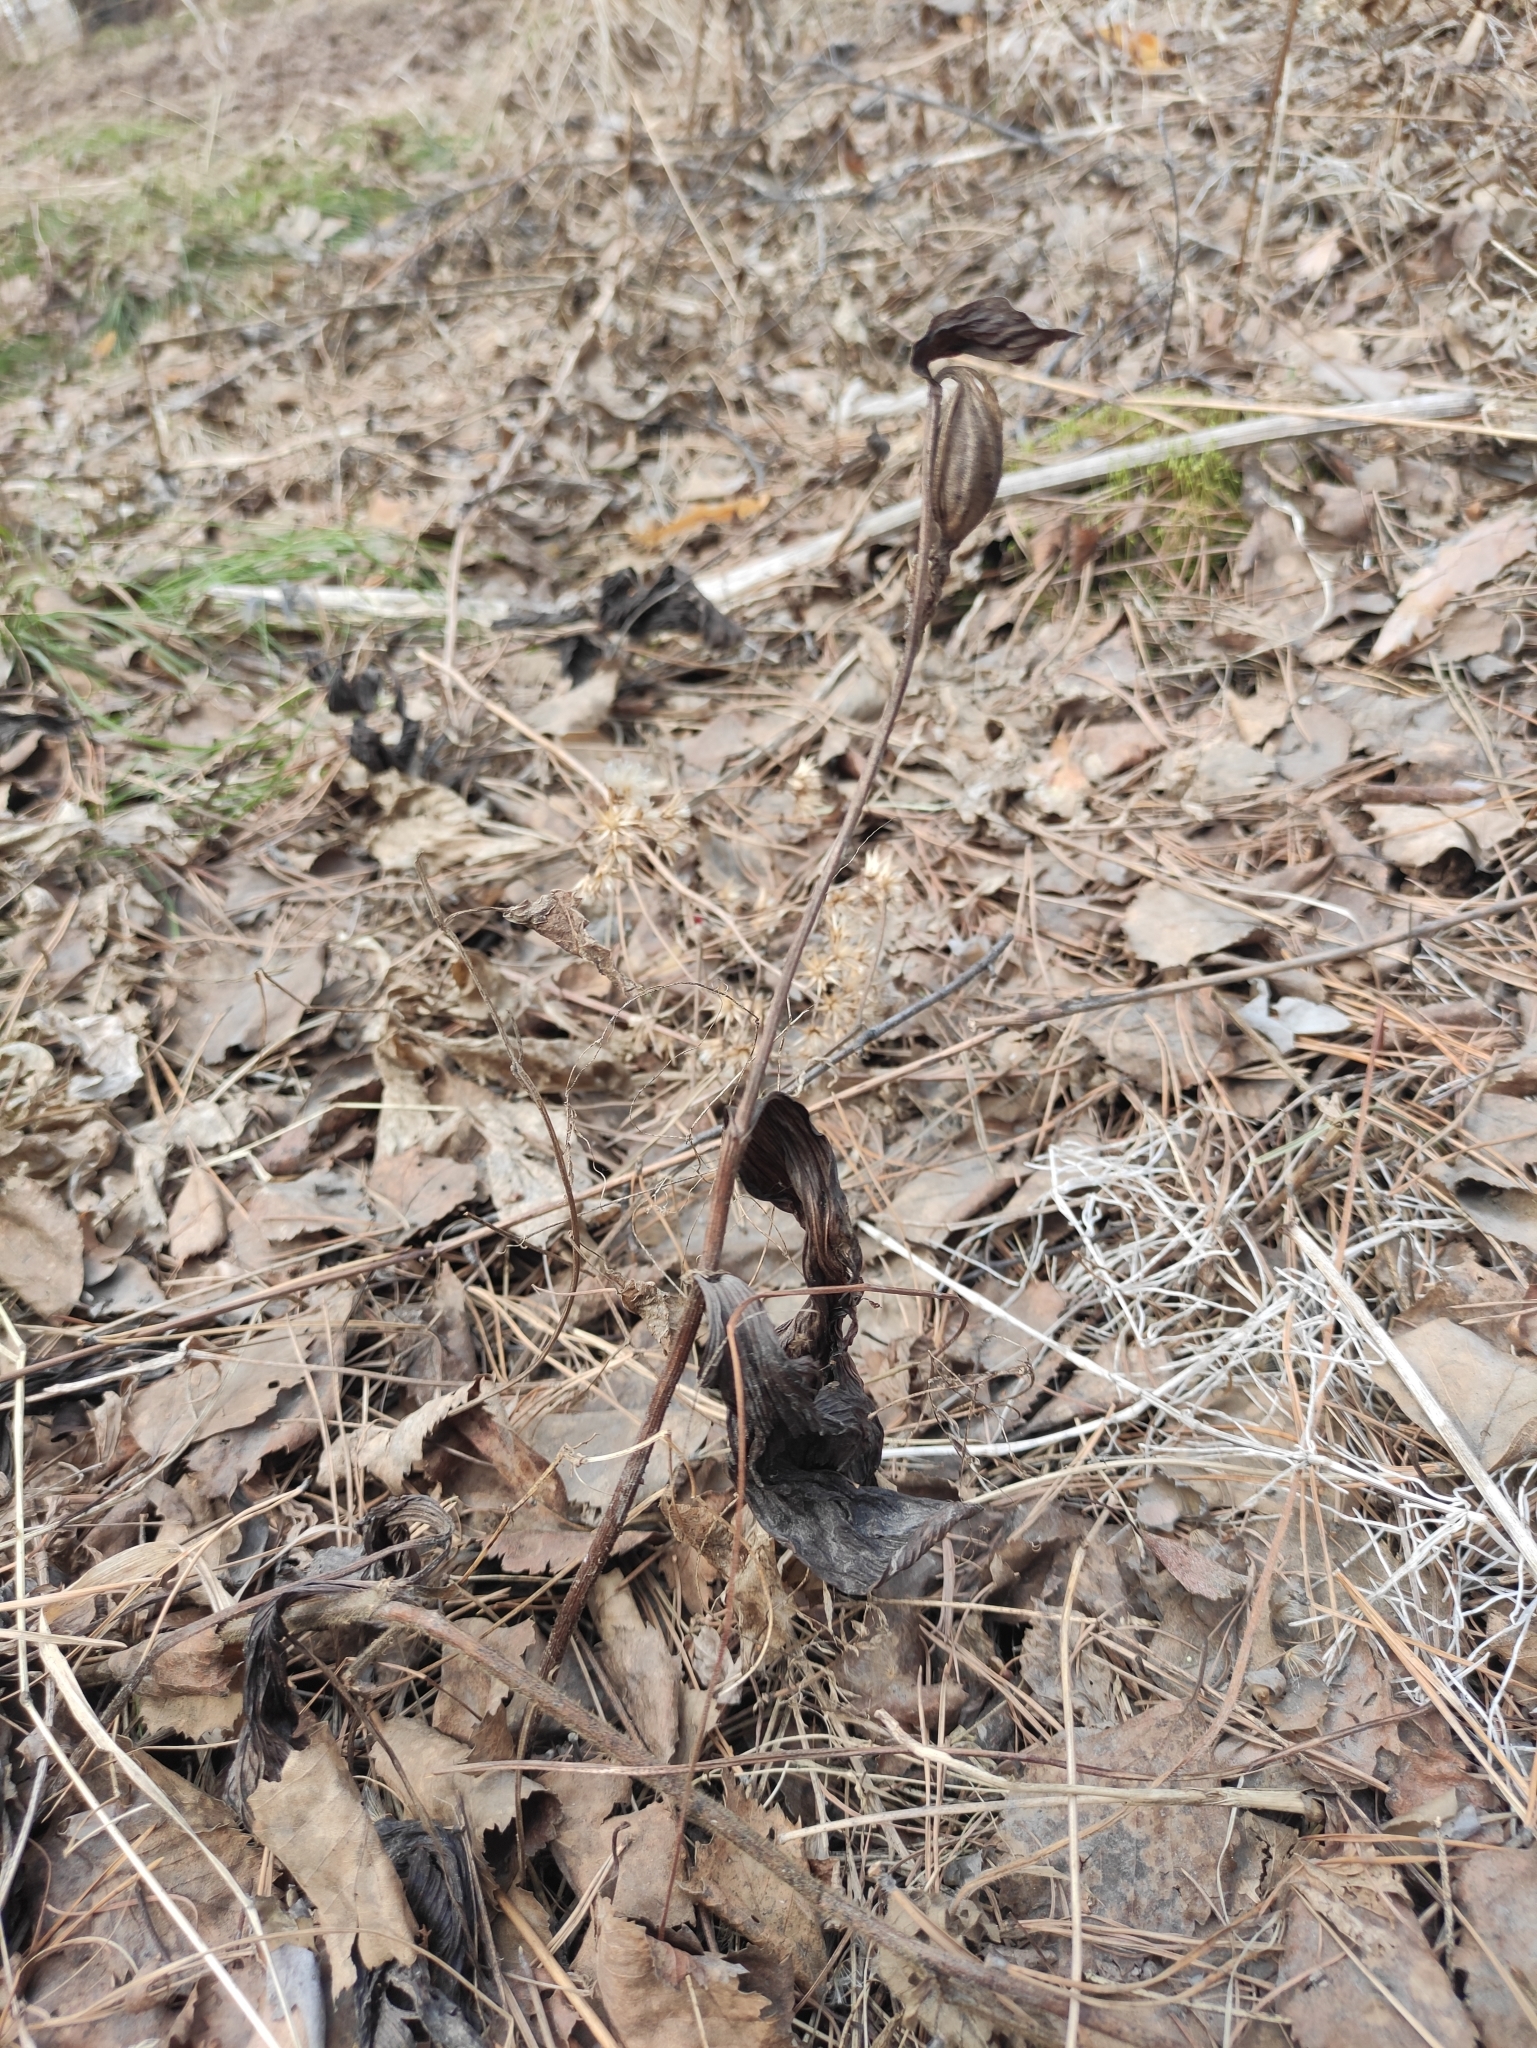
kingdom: Plantae
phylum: Tracheophyta
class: Liliopsida
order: Asparagales
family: Orchidaceae
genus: Cypripedium
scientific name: Cypripedium guttatum
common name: Pink lady slipper
